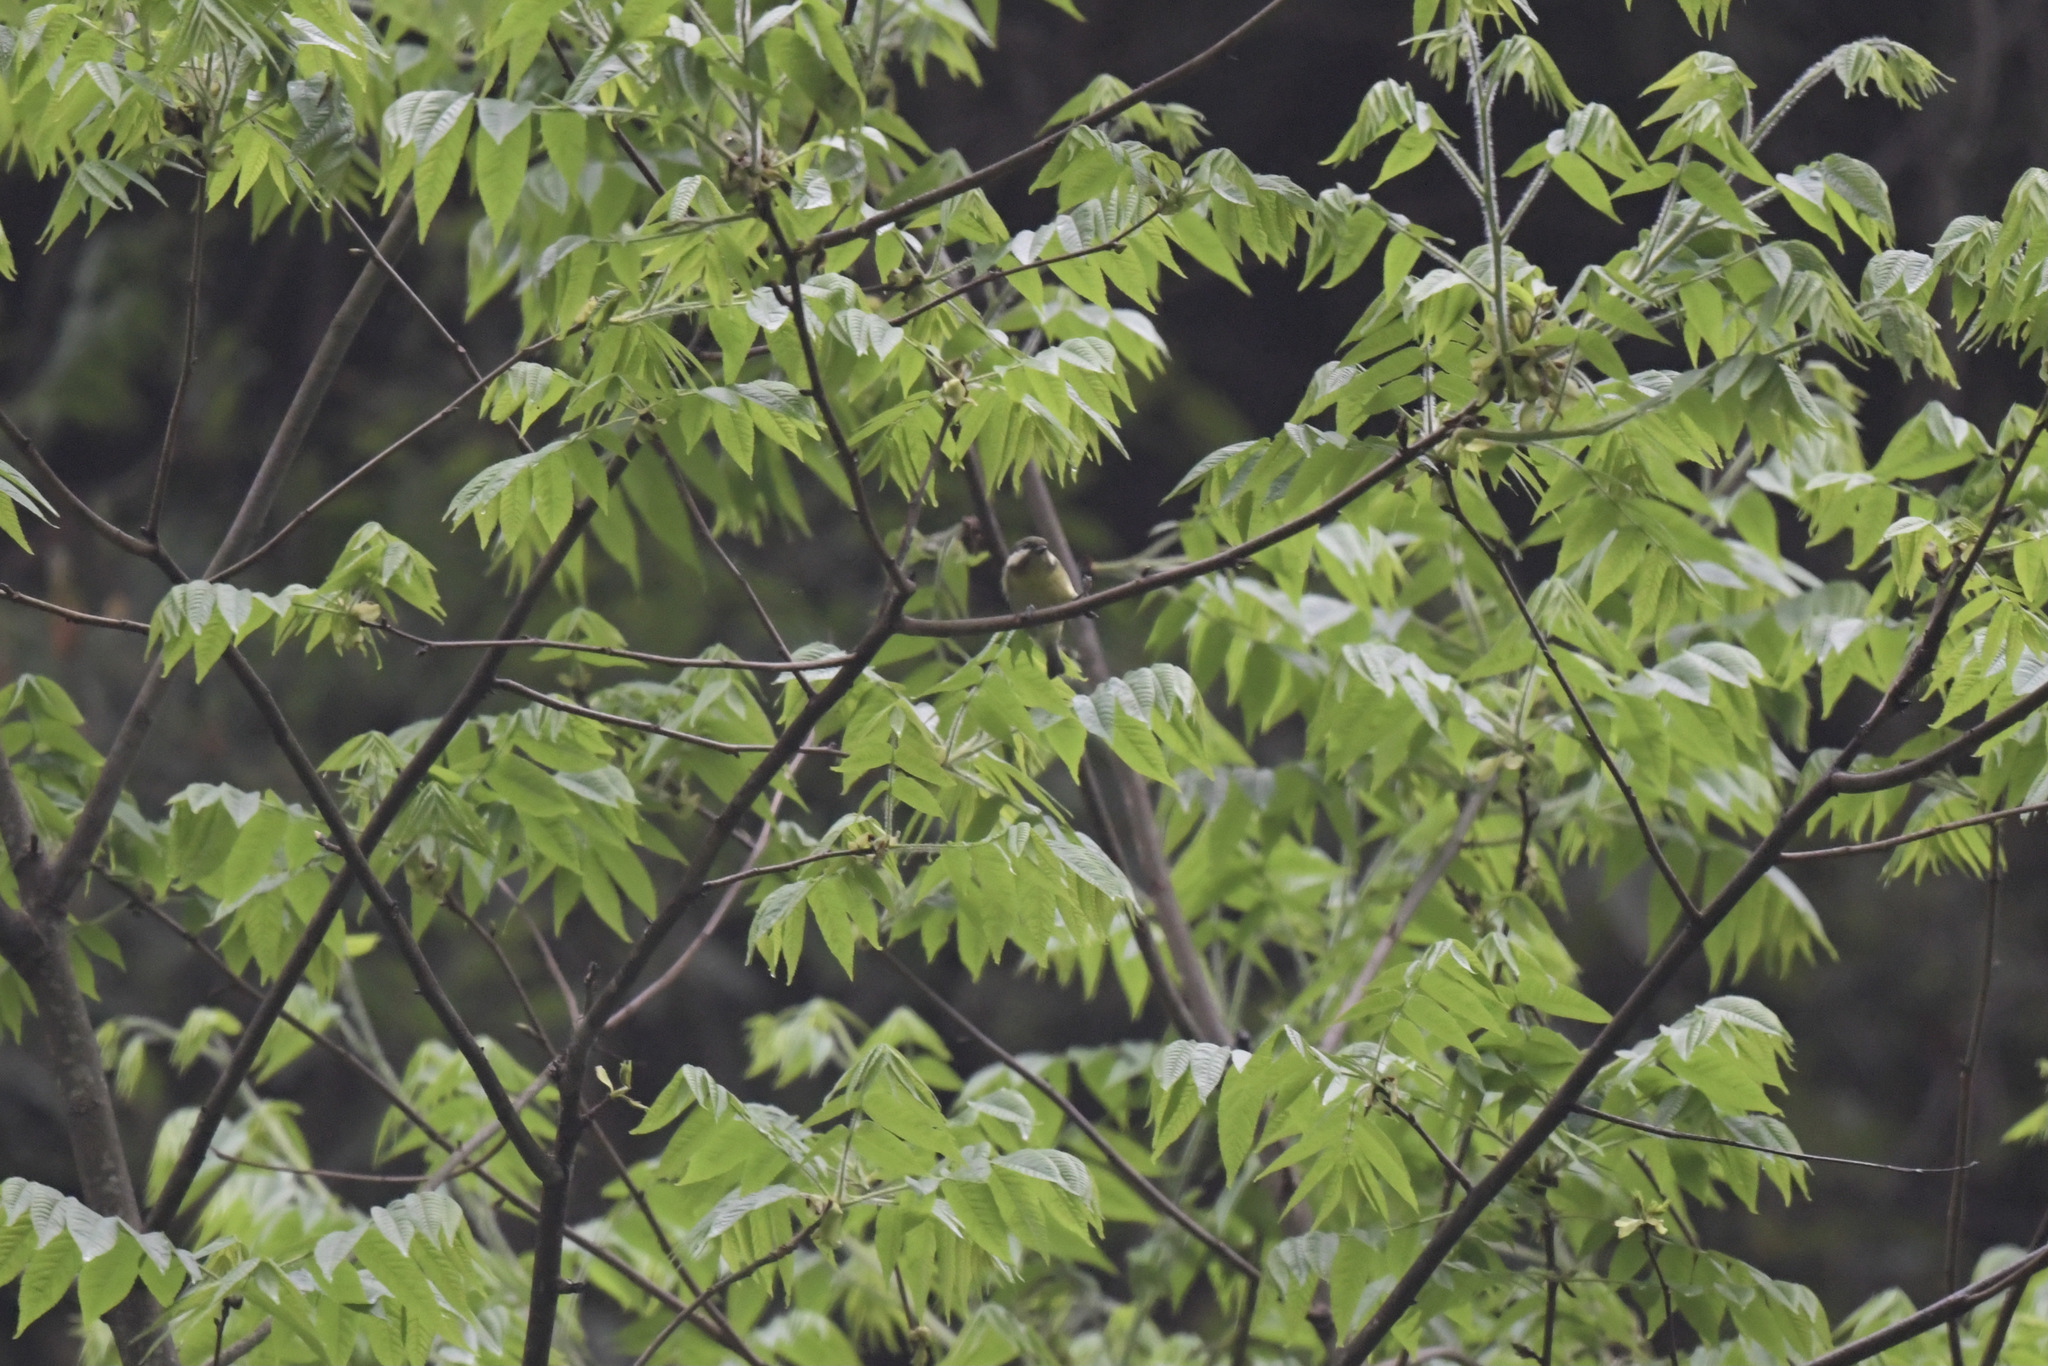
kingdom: Animalia
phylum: Chordata
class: Aves
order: Passeriformes
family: Paridae
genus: Periparus
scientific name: Periparus venustulus
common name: Yellow-bellied tit
